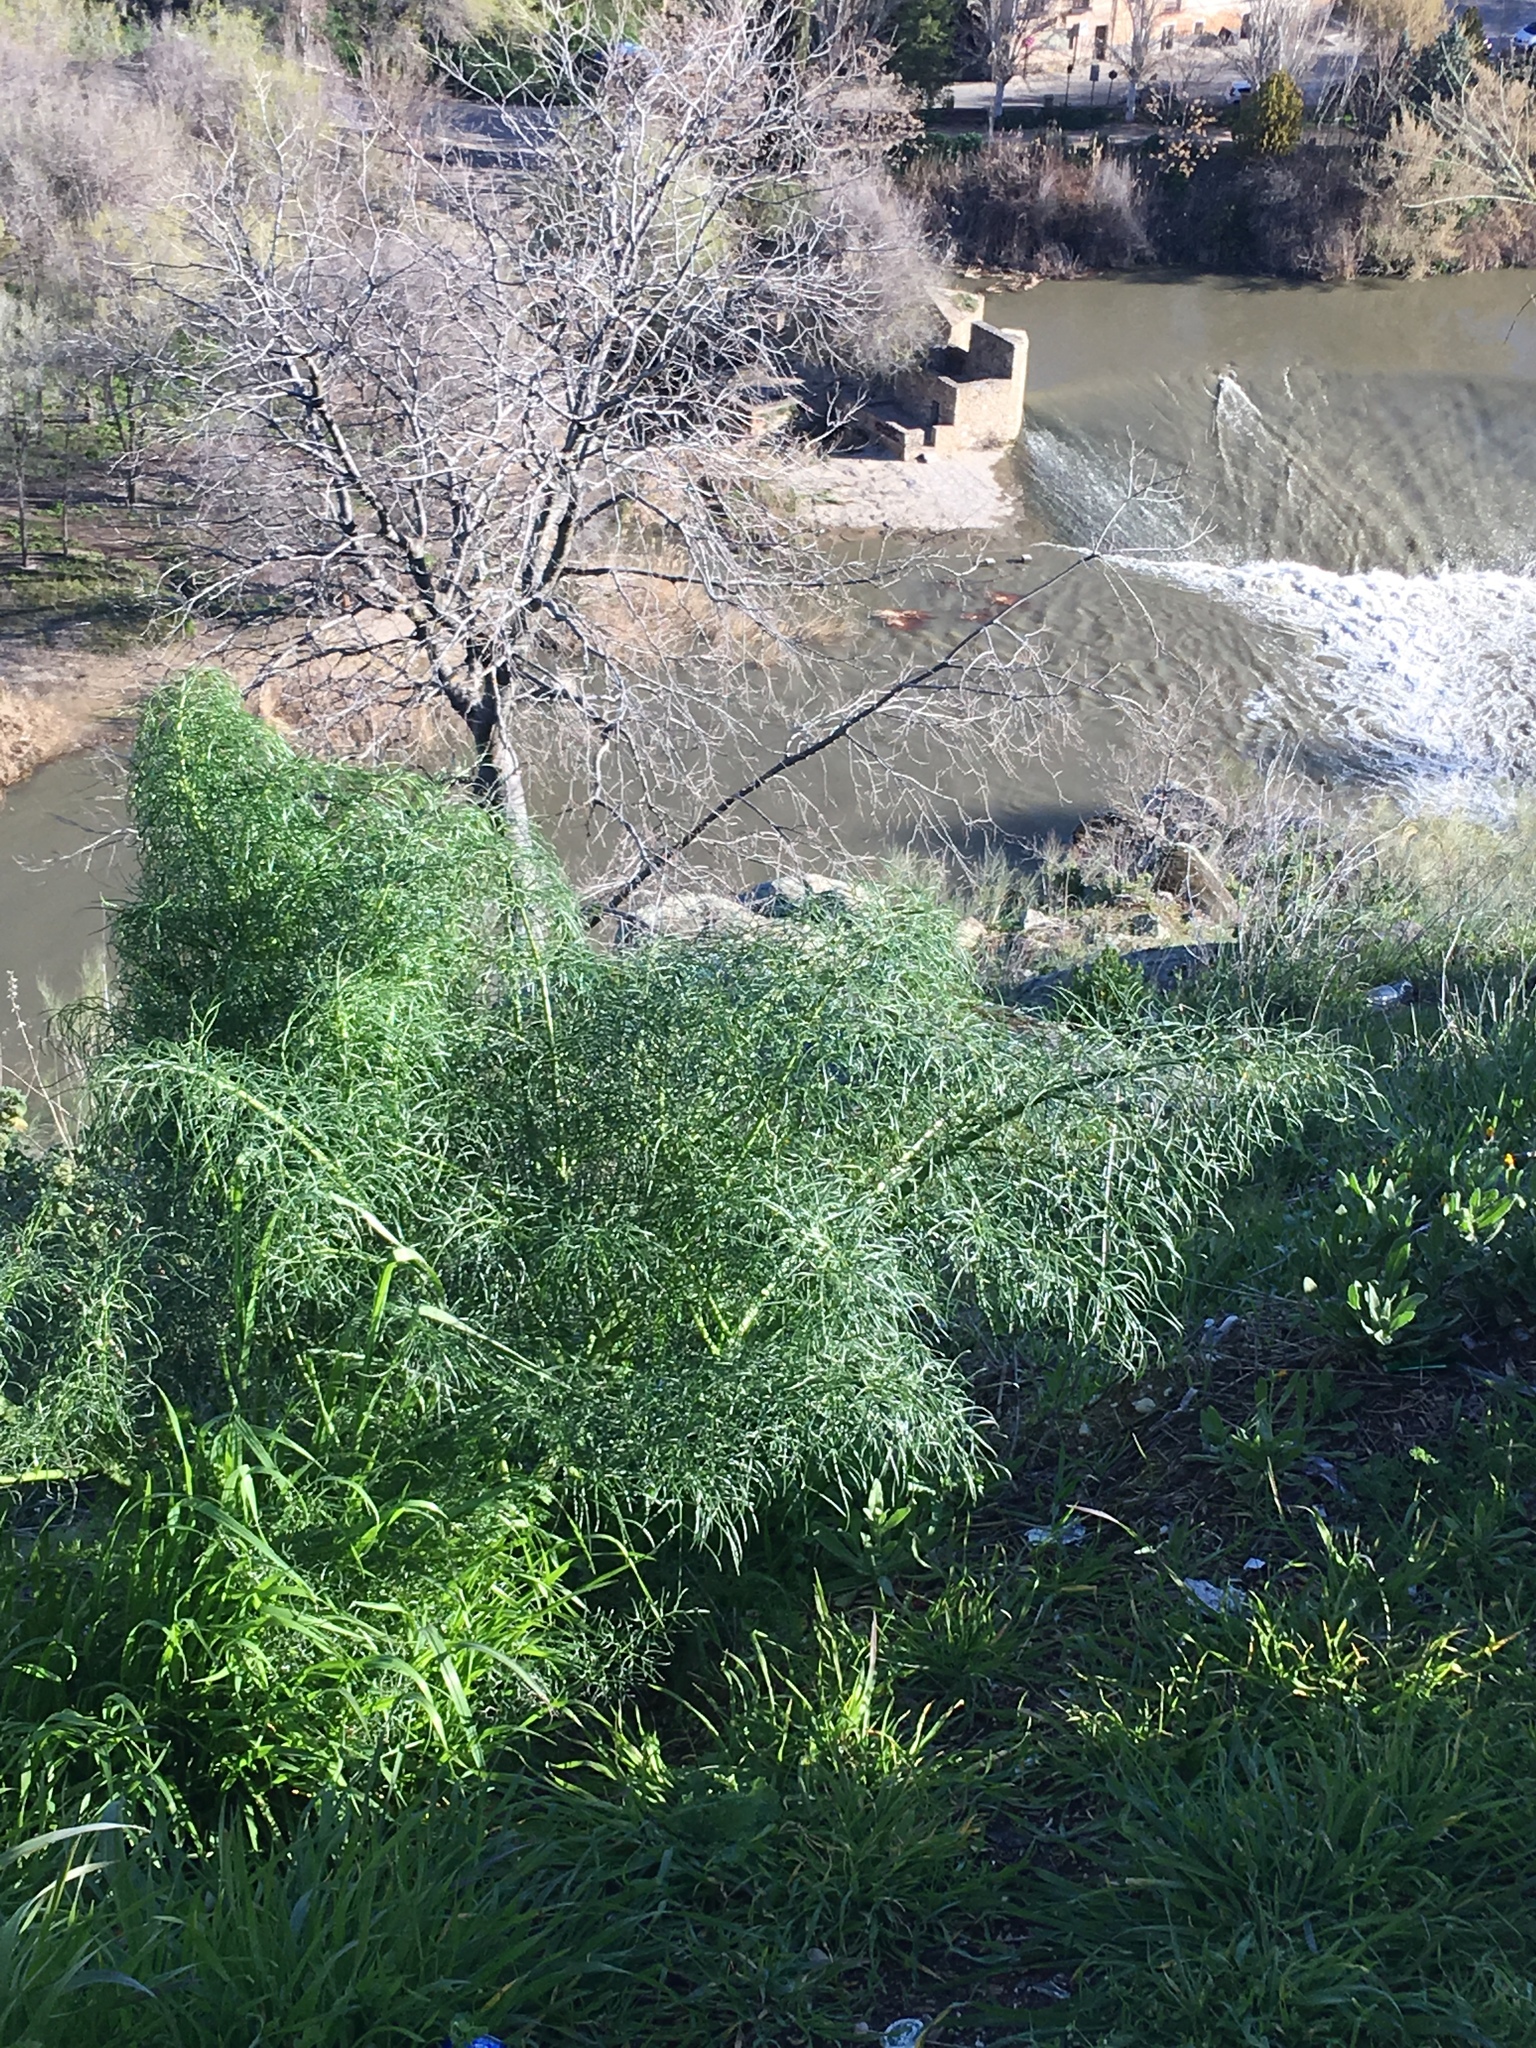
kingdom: Plantae
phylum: Tracheophyta
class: Magnoliopsida
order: Apiales
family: Apiaceae
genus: Ferula
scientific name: Ferula communis
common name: Giant fennel
